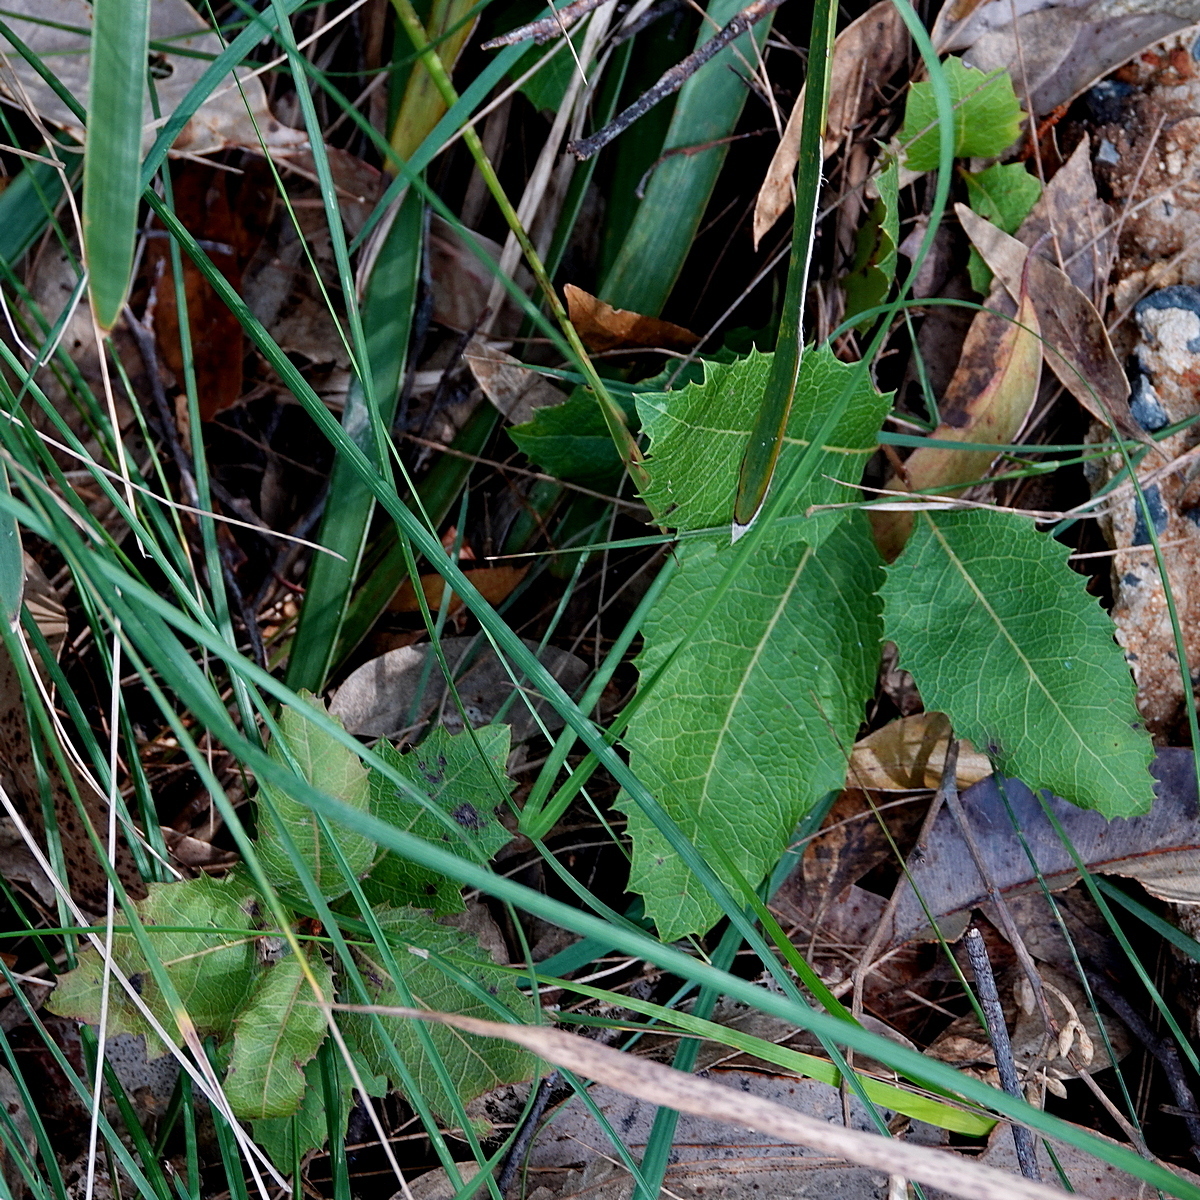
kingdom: Plantae
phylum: Tracheophyta
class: Magnoliopsida
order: Proteales
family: Proteaceae
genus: Lomatia
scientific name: Lomatia ilicifolia
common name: Native-holly
